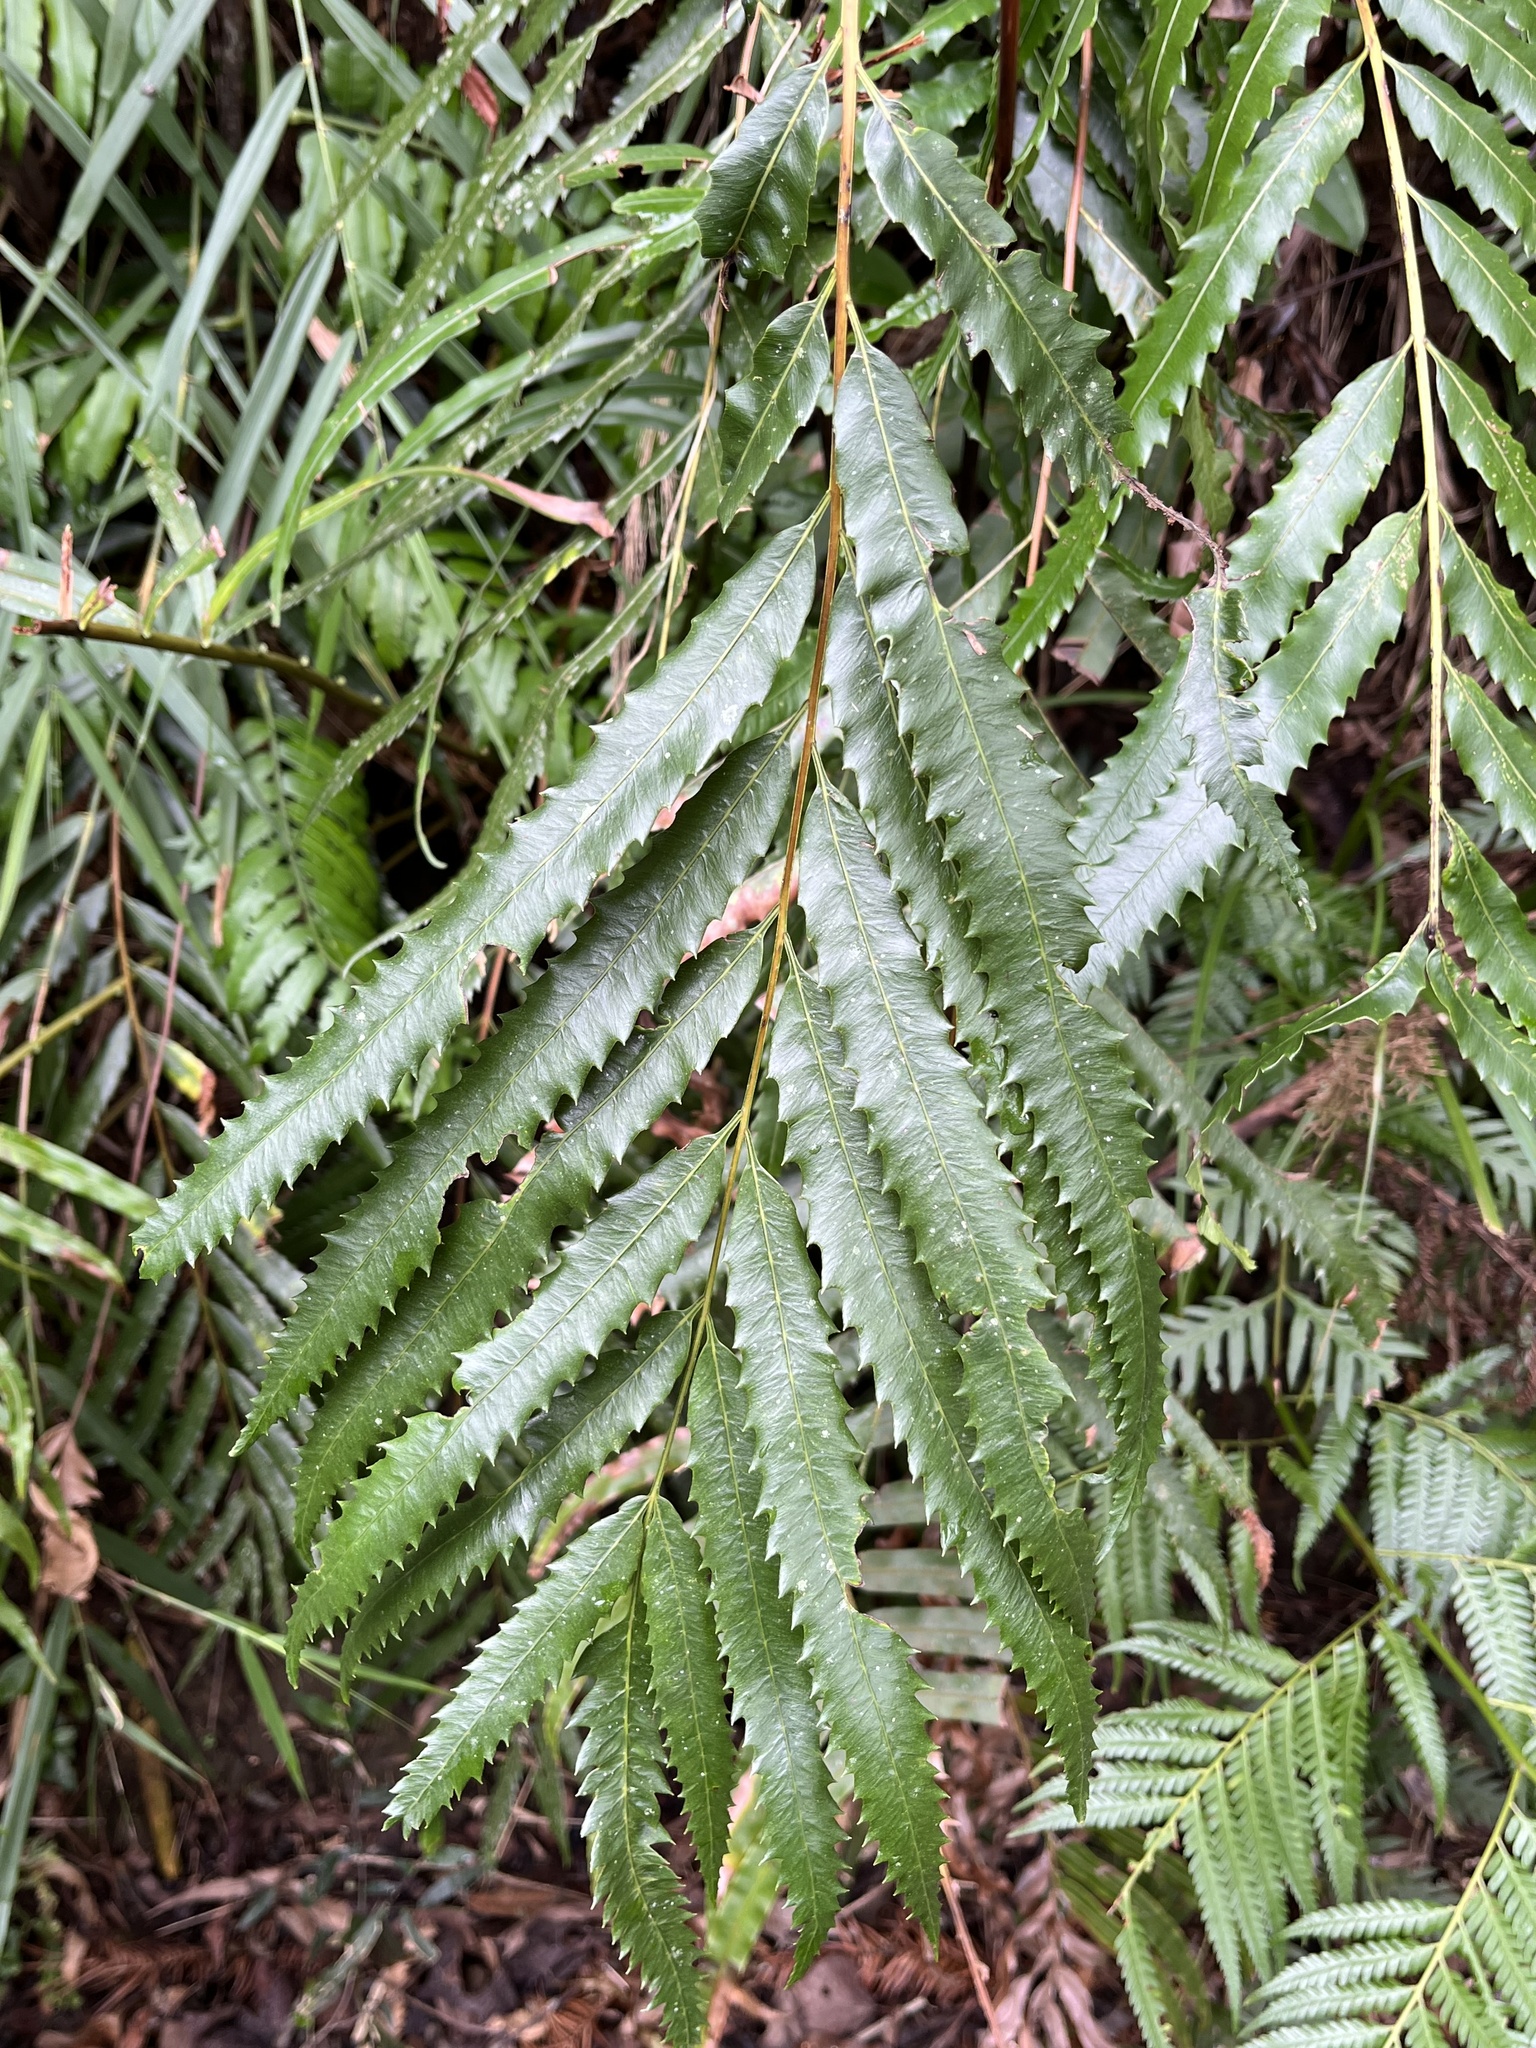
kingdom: Plantae
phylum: Tracheophyta
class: Polypodiopsida
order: Osmundales
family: Osmundaceae
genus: Plenasium
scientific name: Plenasium banksiifolium
